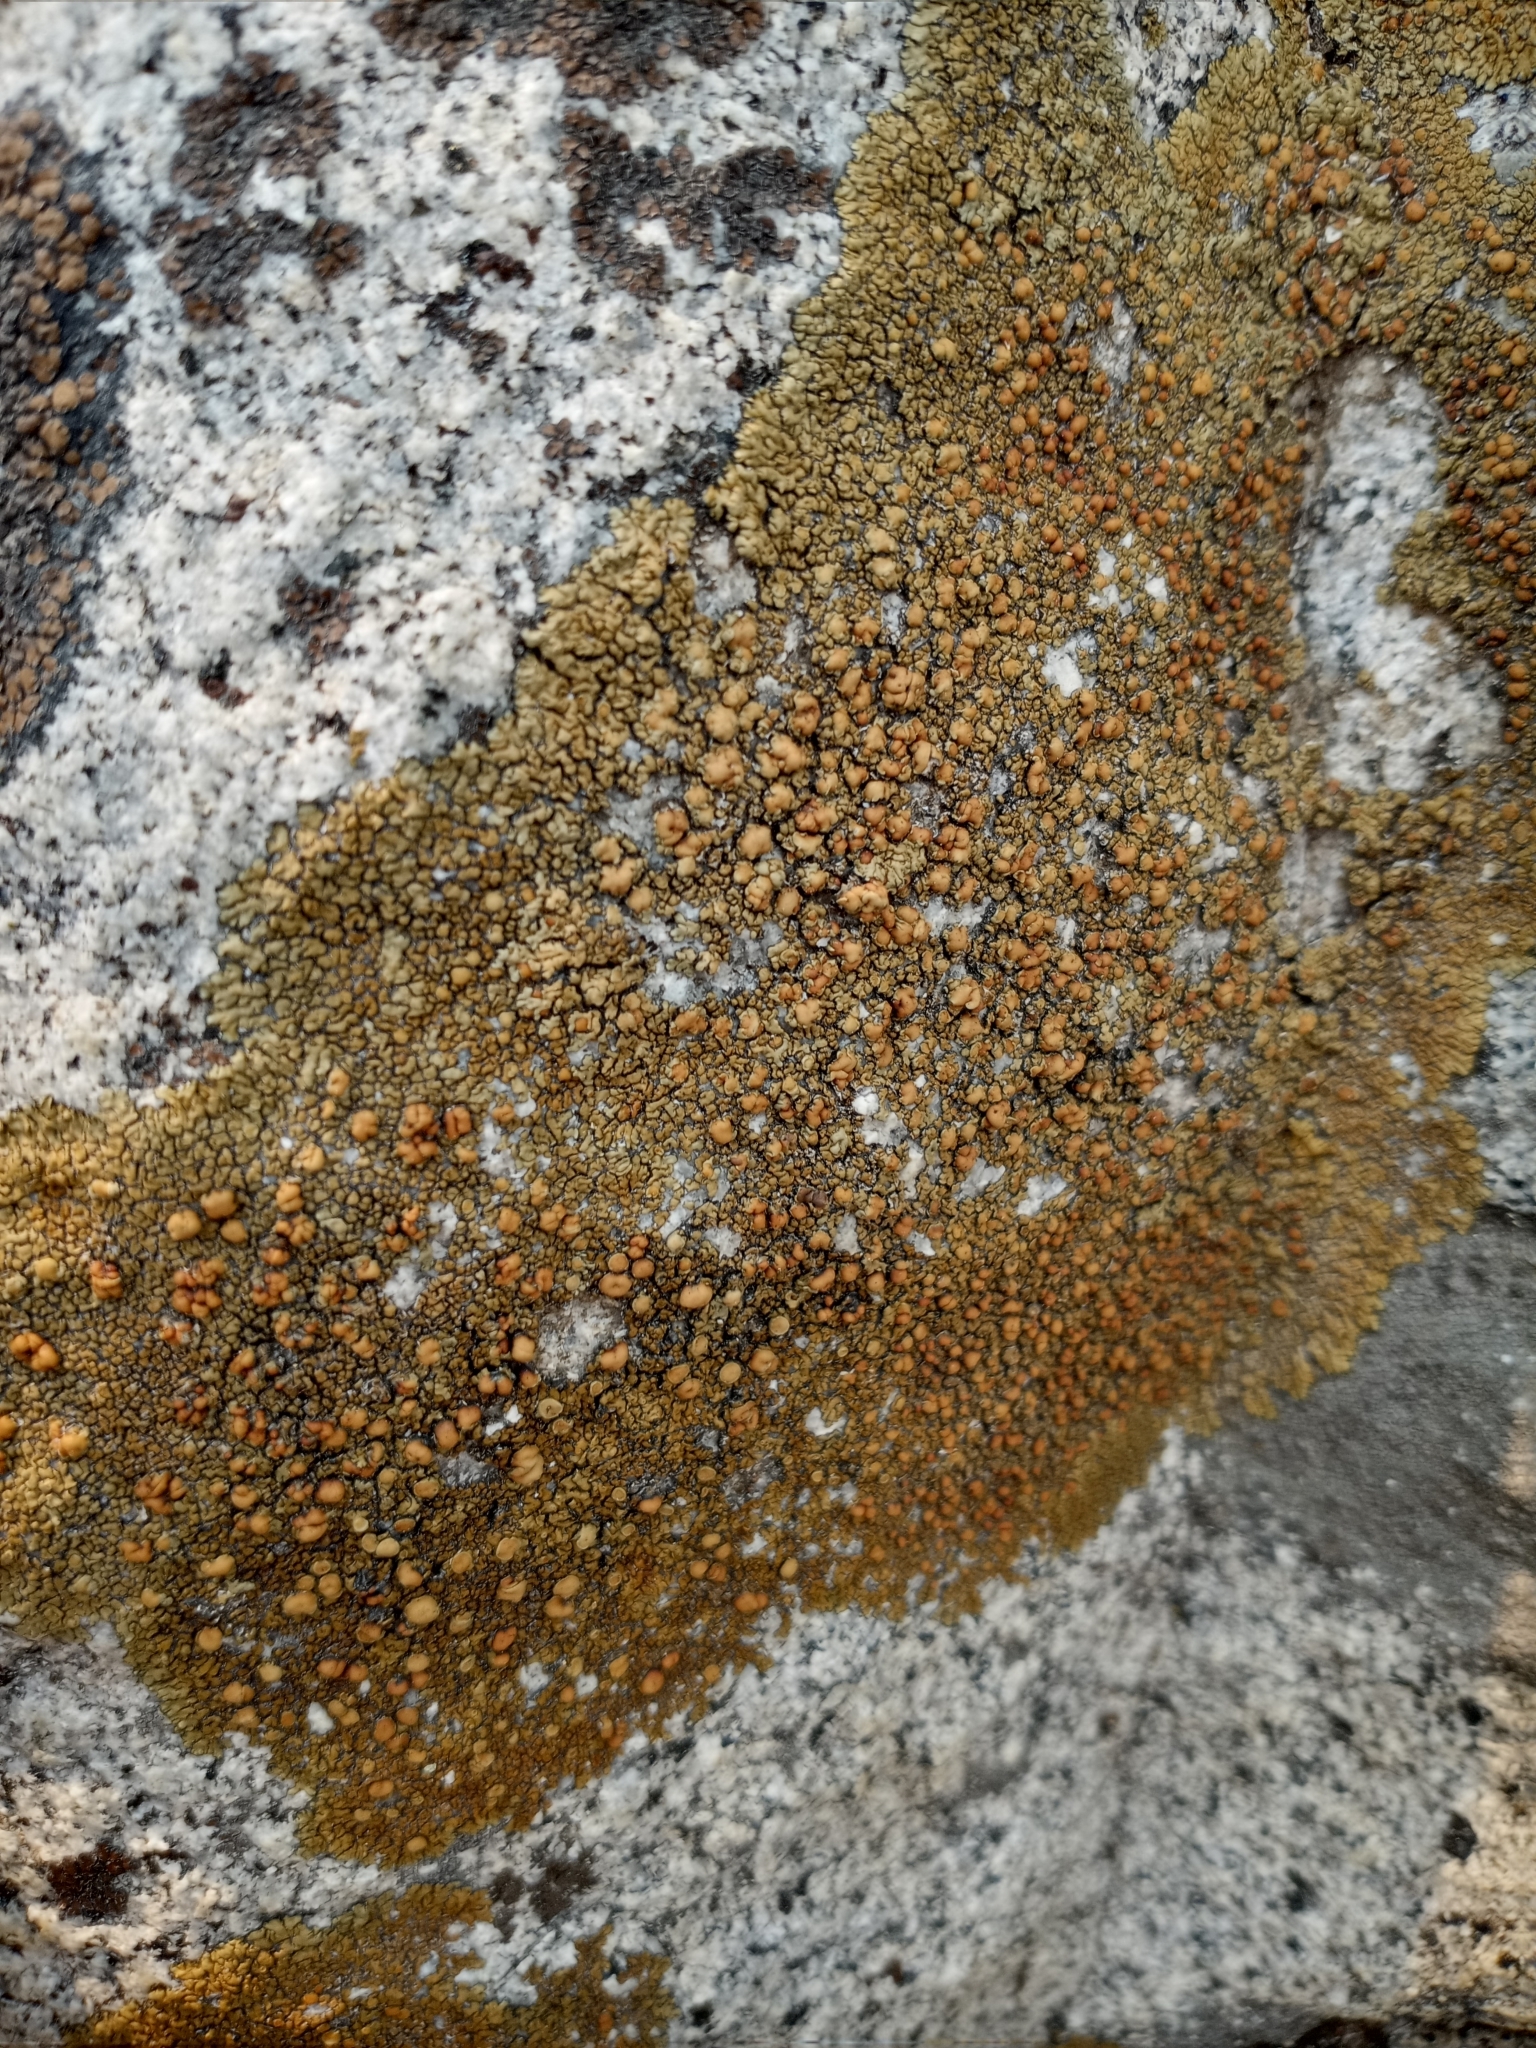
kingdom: Fungi
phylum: Ascomycota
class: Lecanoromycetes
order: Lecanorales
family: Lecanoraceae
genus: Lecanora
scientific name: Lecanora pseudomellea
